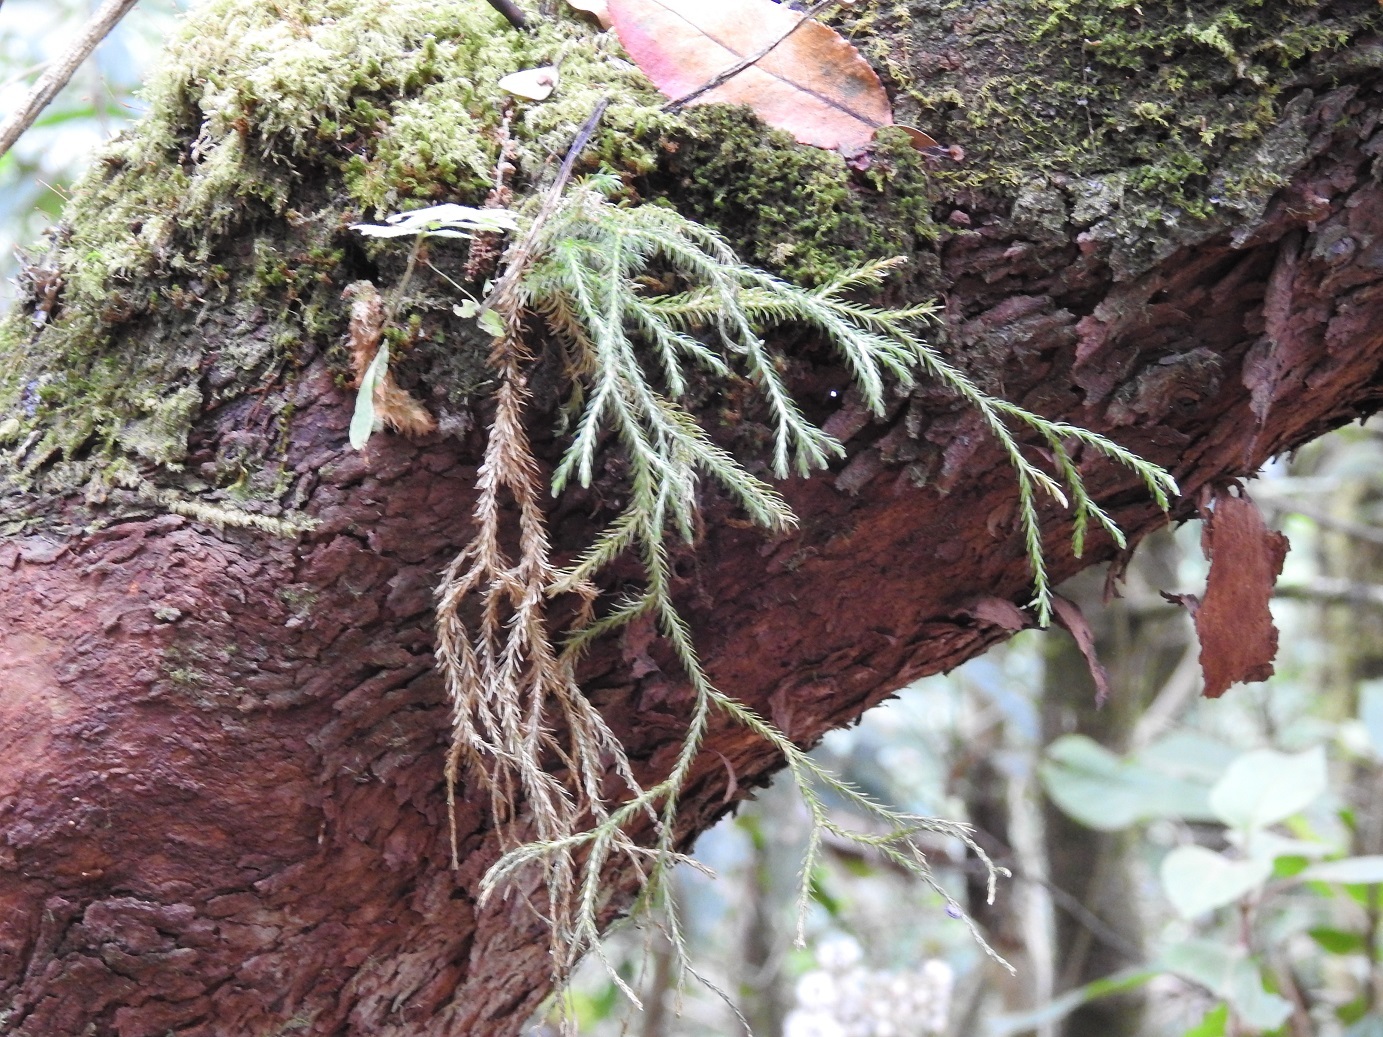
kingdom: Plantae
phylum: Tracheophyta
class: Lycopodiopsida
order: Lycopodiales
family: Lycopodiaceae
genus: Phlegmariurus
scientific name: Phlegmariurus pringlei
